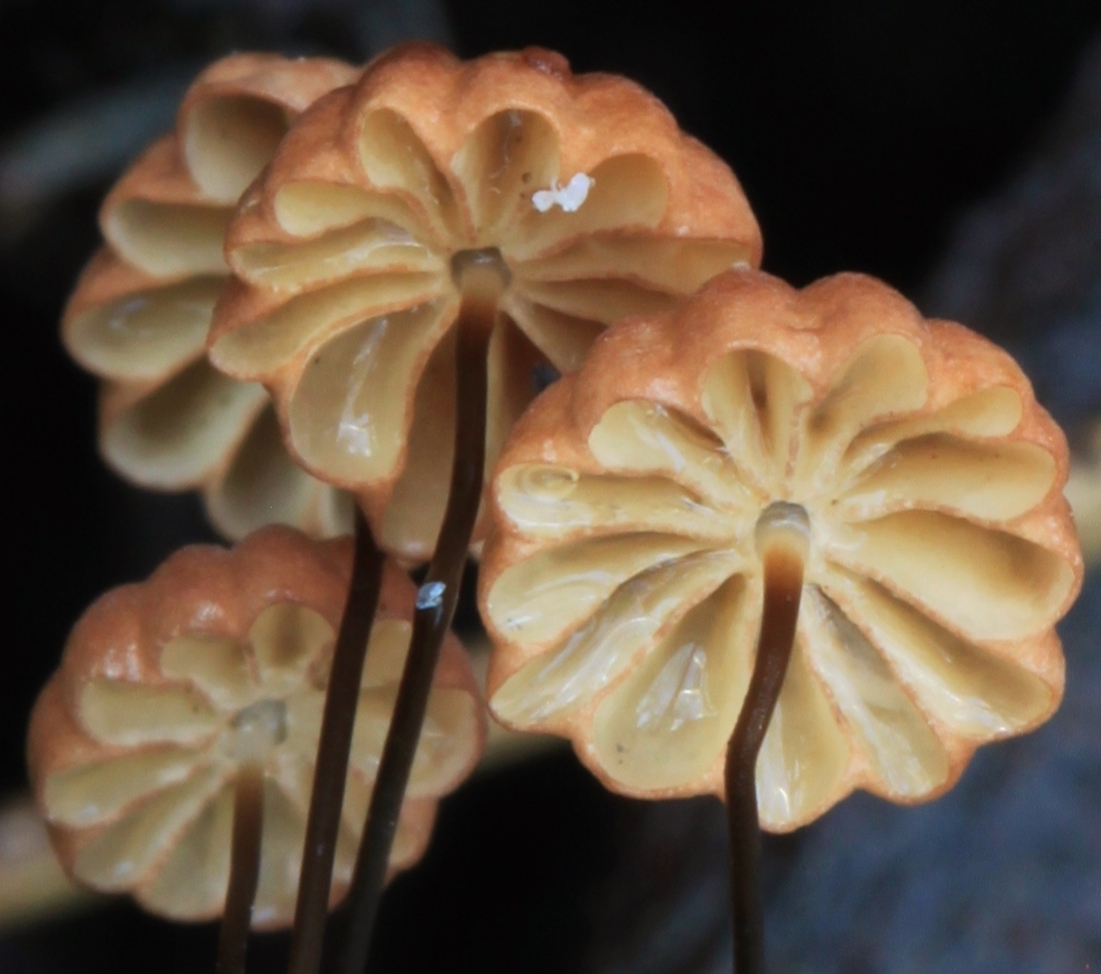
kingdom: Fungi
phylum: Basidiomycota
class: Agaricomycetes
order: Agaricales
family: Marasmiaceae
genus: Marasmius
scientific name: Marasmius crinis-equi
